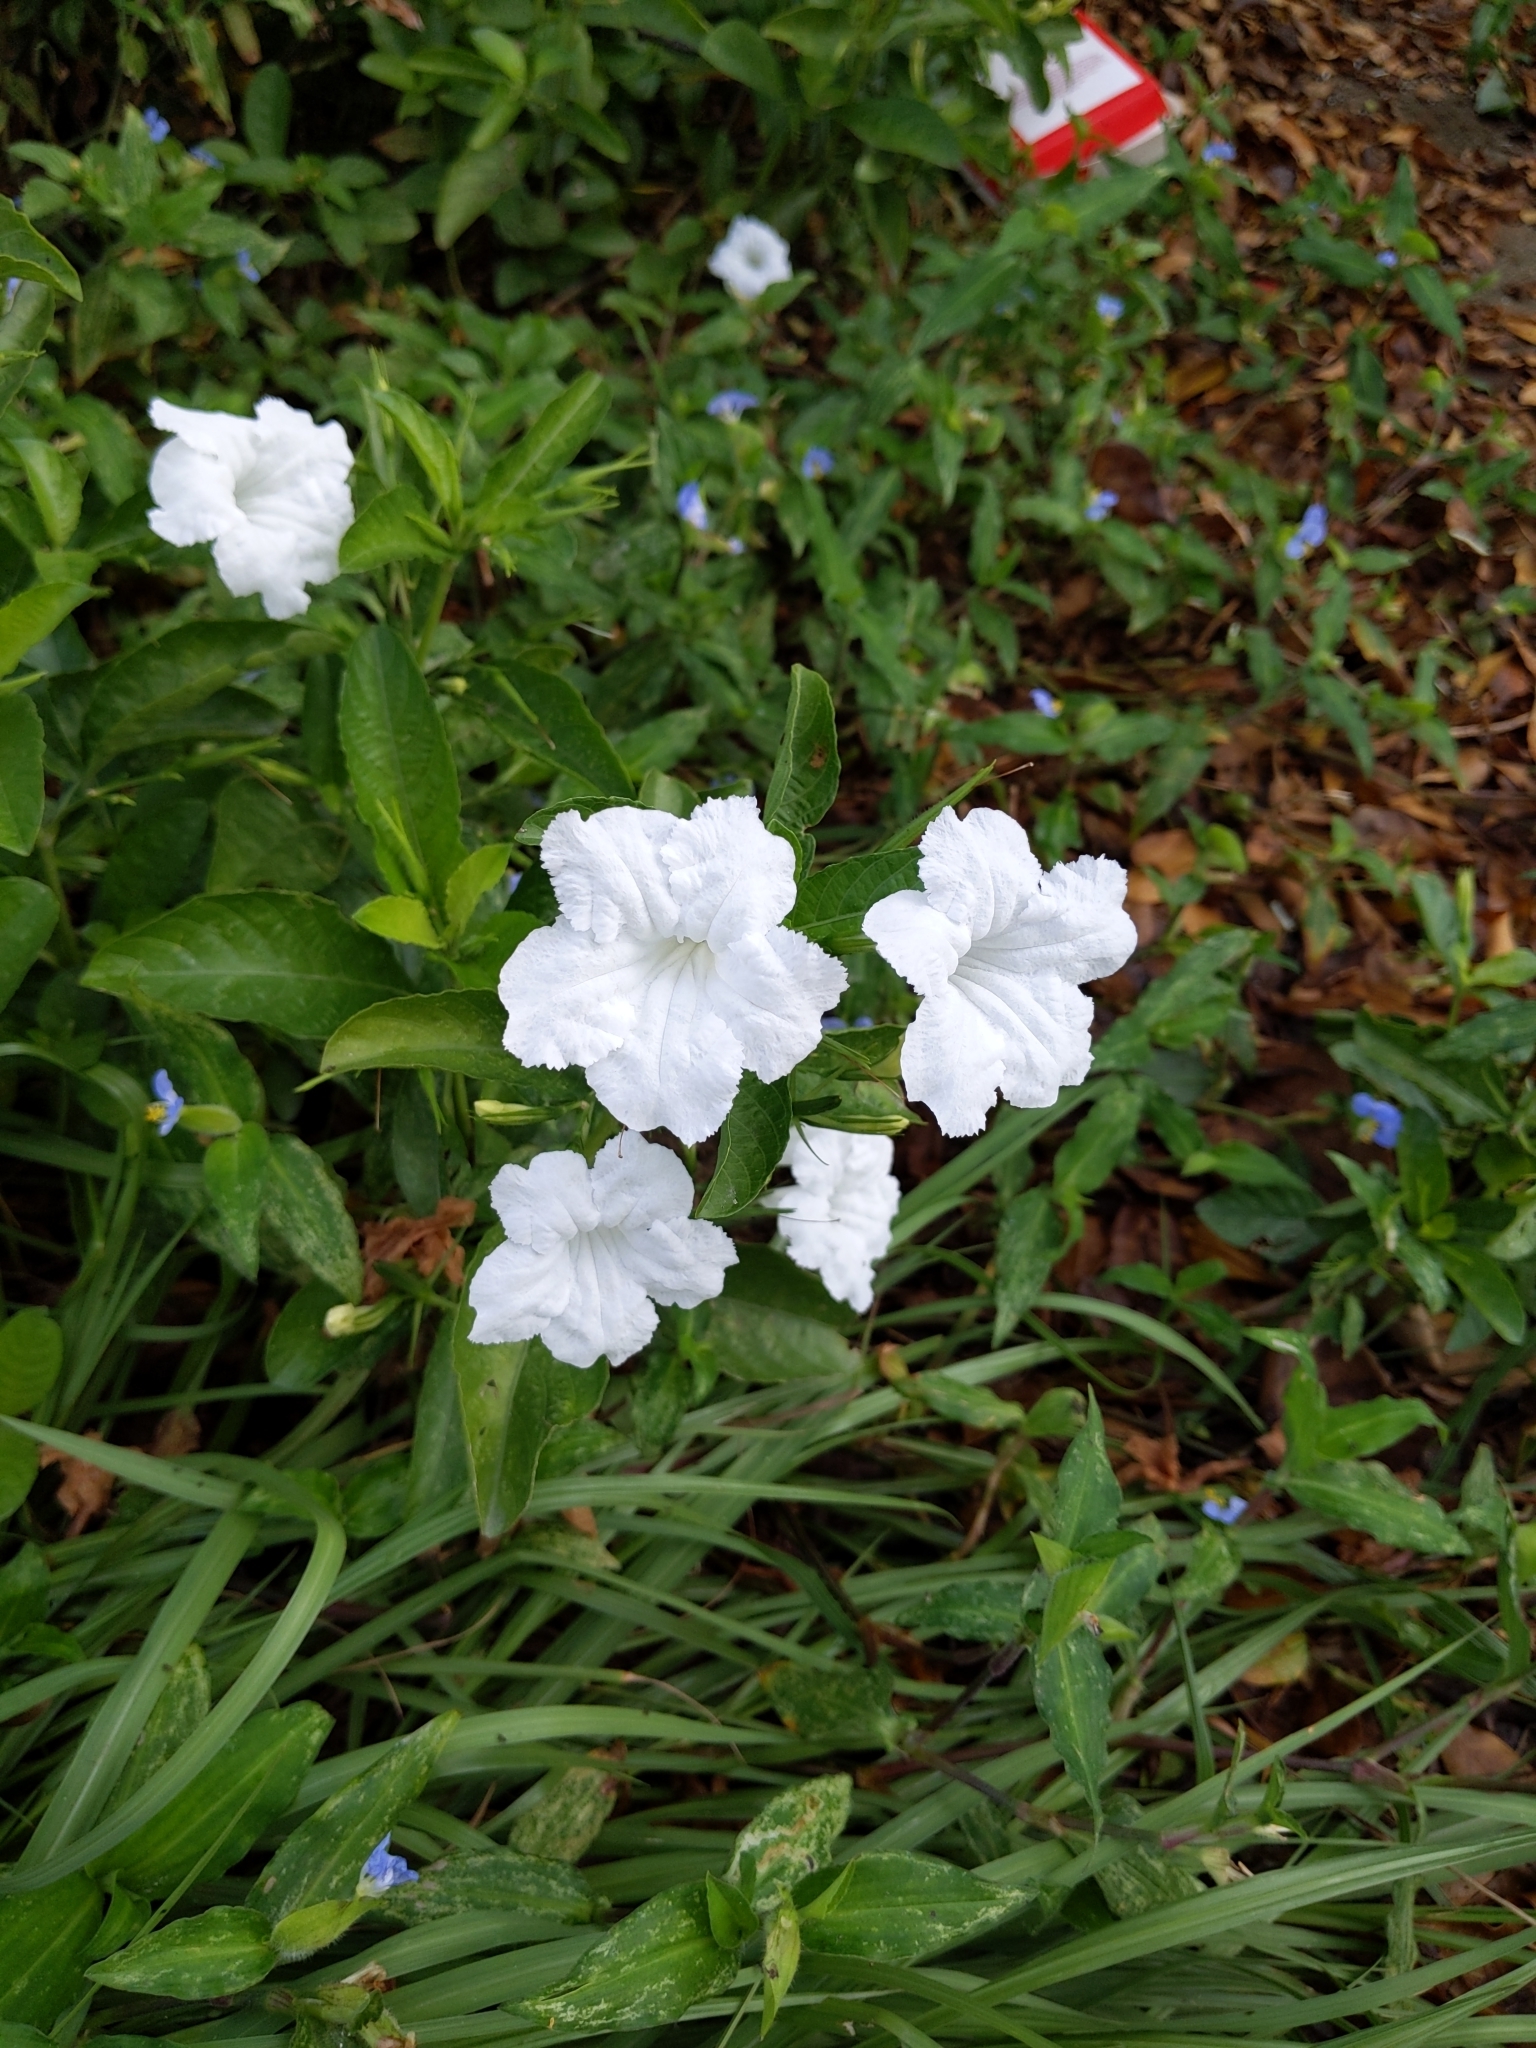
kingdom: Plantae
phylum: Tracheophyta
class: Magnoliopsida
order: Lamiales
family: Acanthaceae
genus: Ruellia
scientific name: Ruellia tuberosa
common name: Devil's bit
